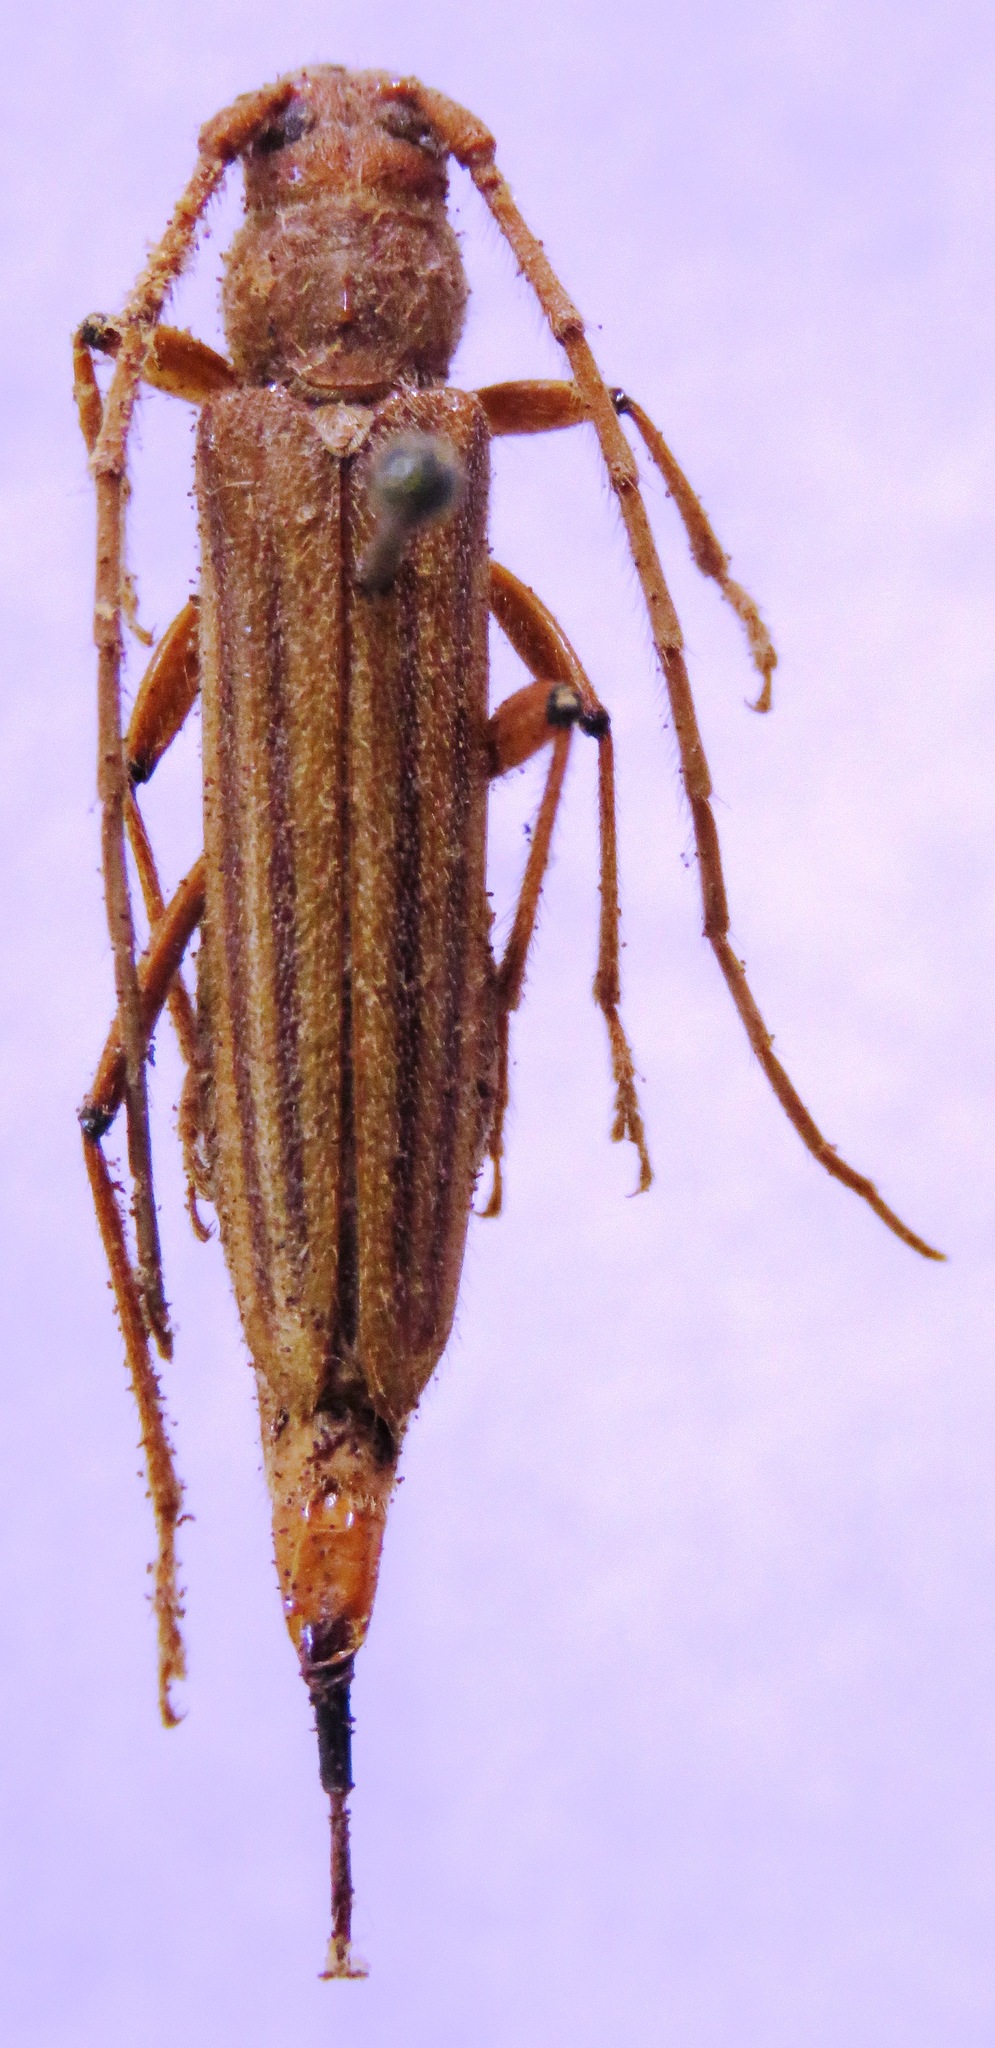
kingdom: Animalia
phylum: Arthropoda
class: Insecta
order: Coleoptera
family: Cerambycidae
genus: Malacopterus
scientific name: Malacopterus tenellus
